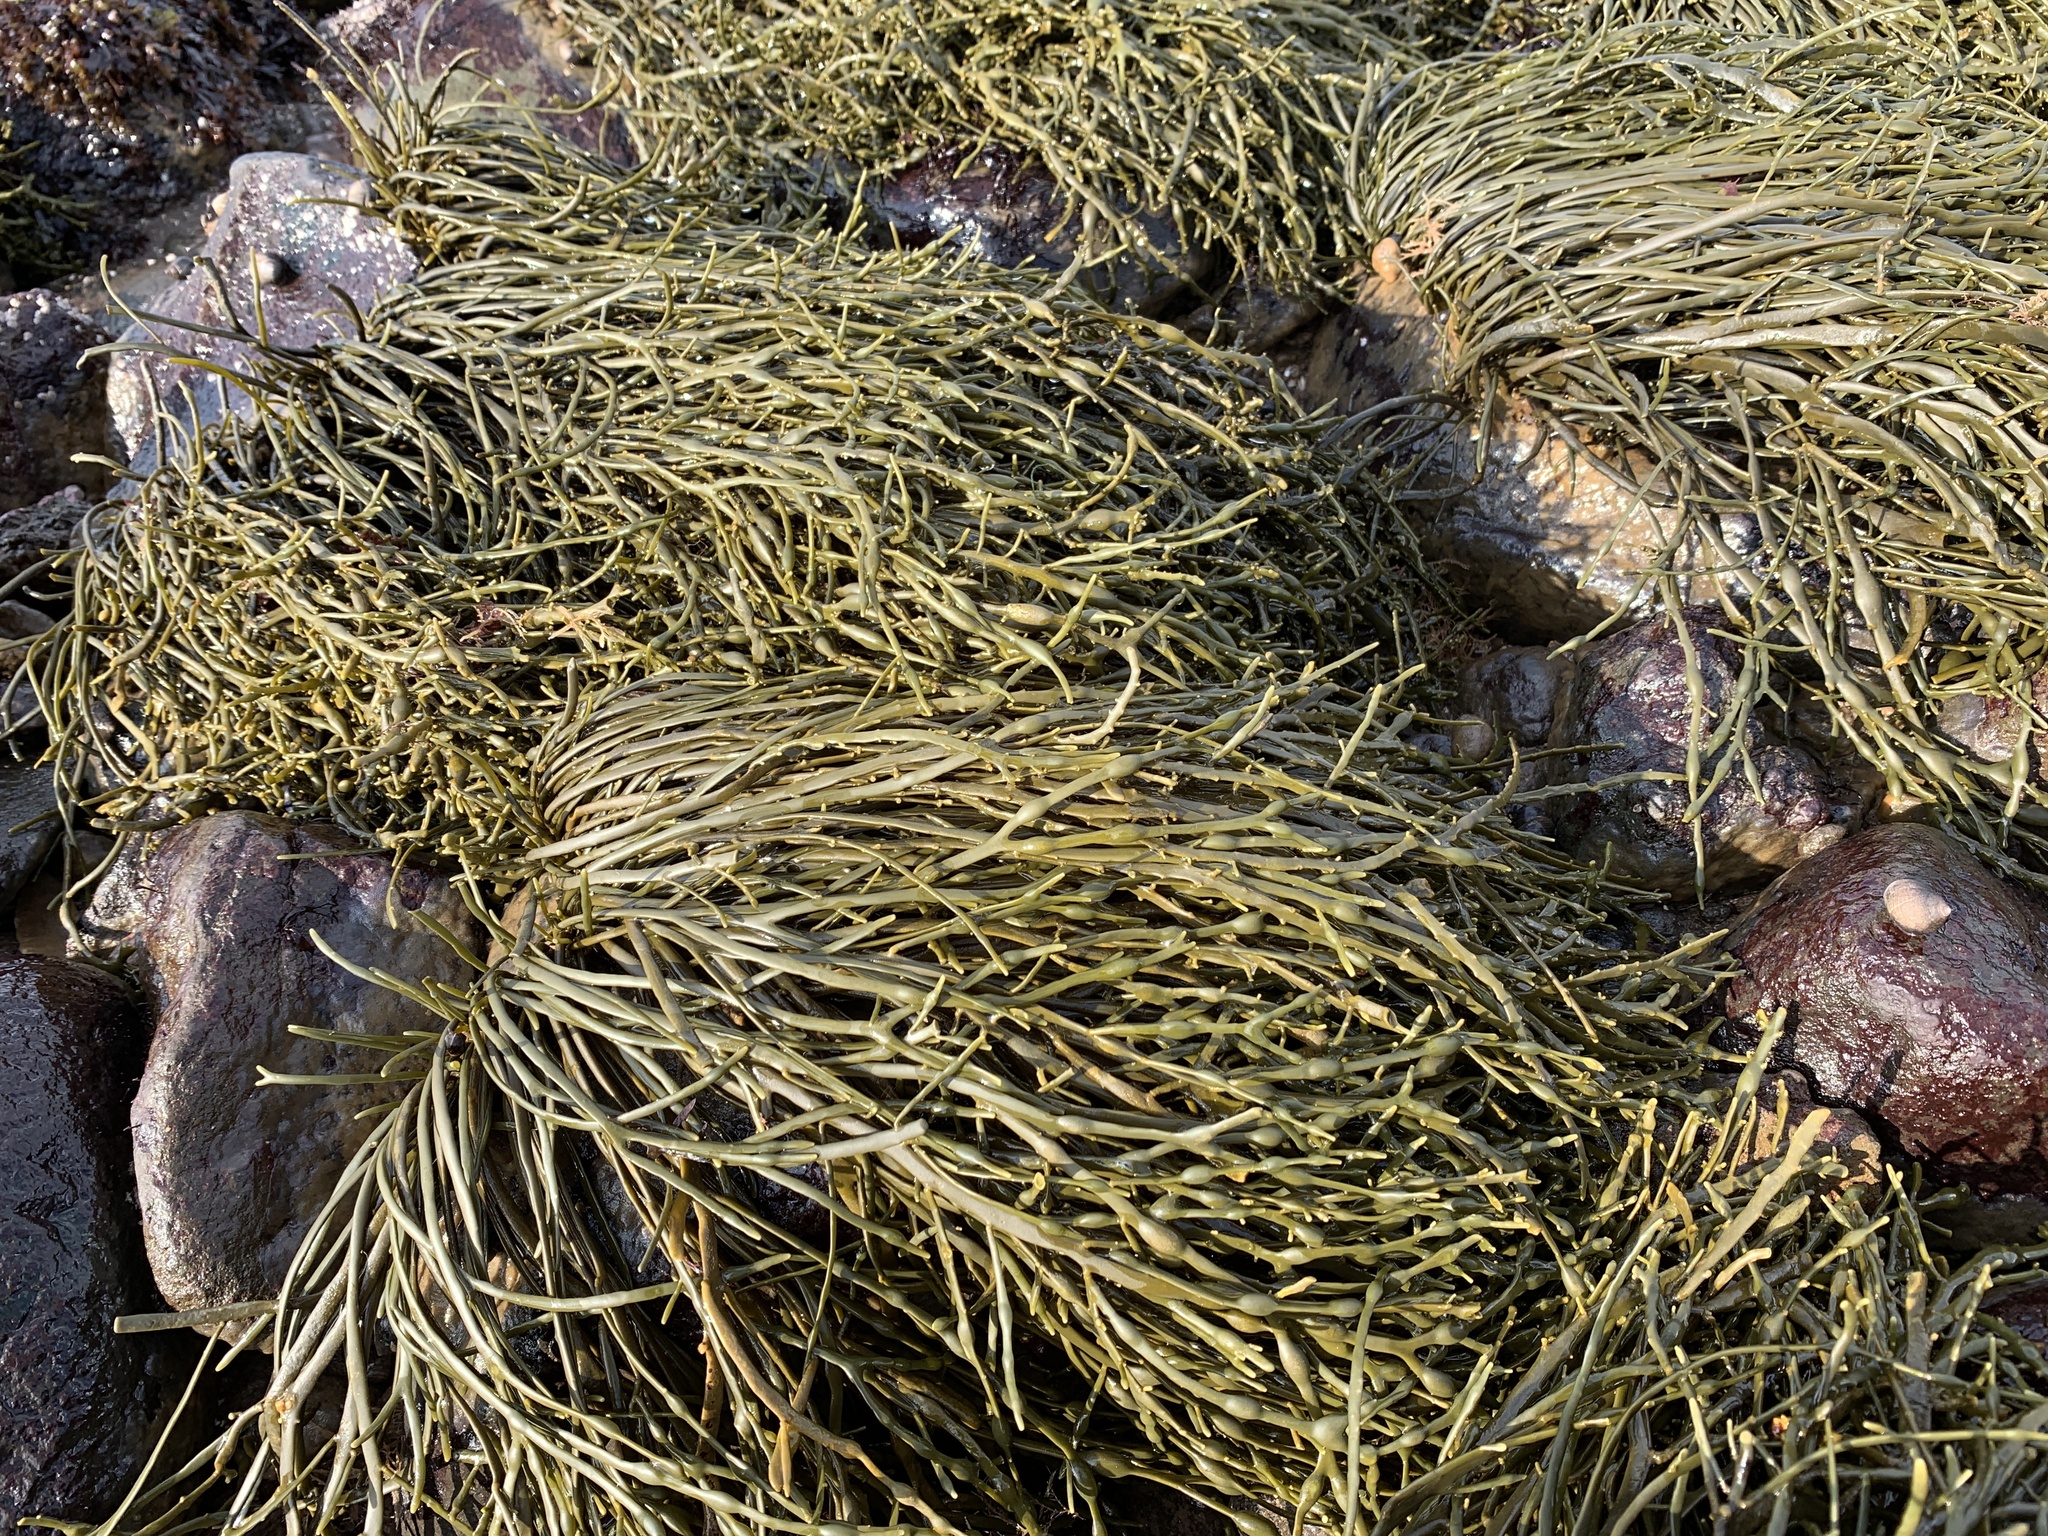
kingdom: Chromista
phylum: Ochrophyta
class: Phaeophyceae
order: Fucales
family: Fucaceae
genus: Ascophyllum
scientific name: Ascophyllum nodosum
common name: Knotted wrack
